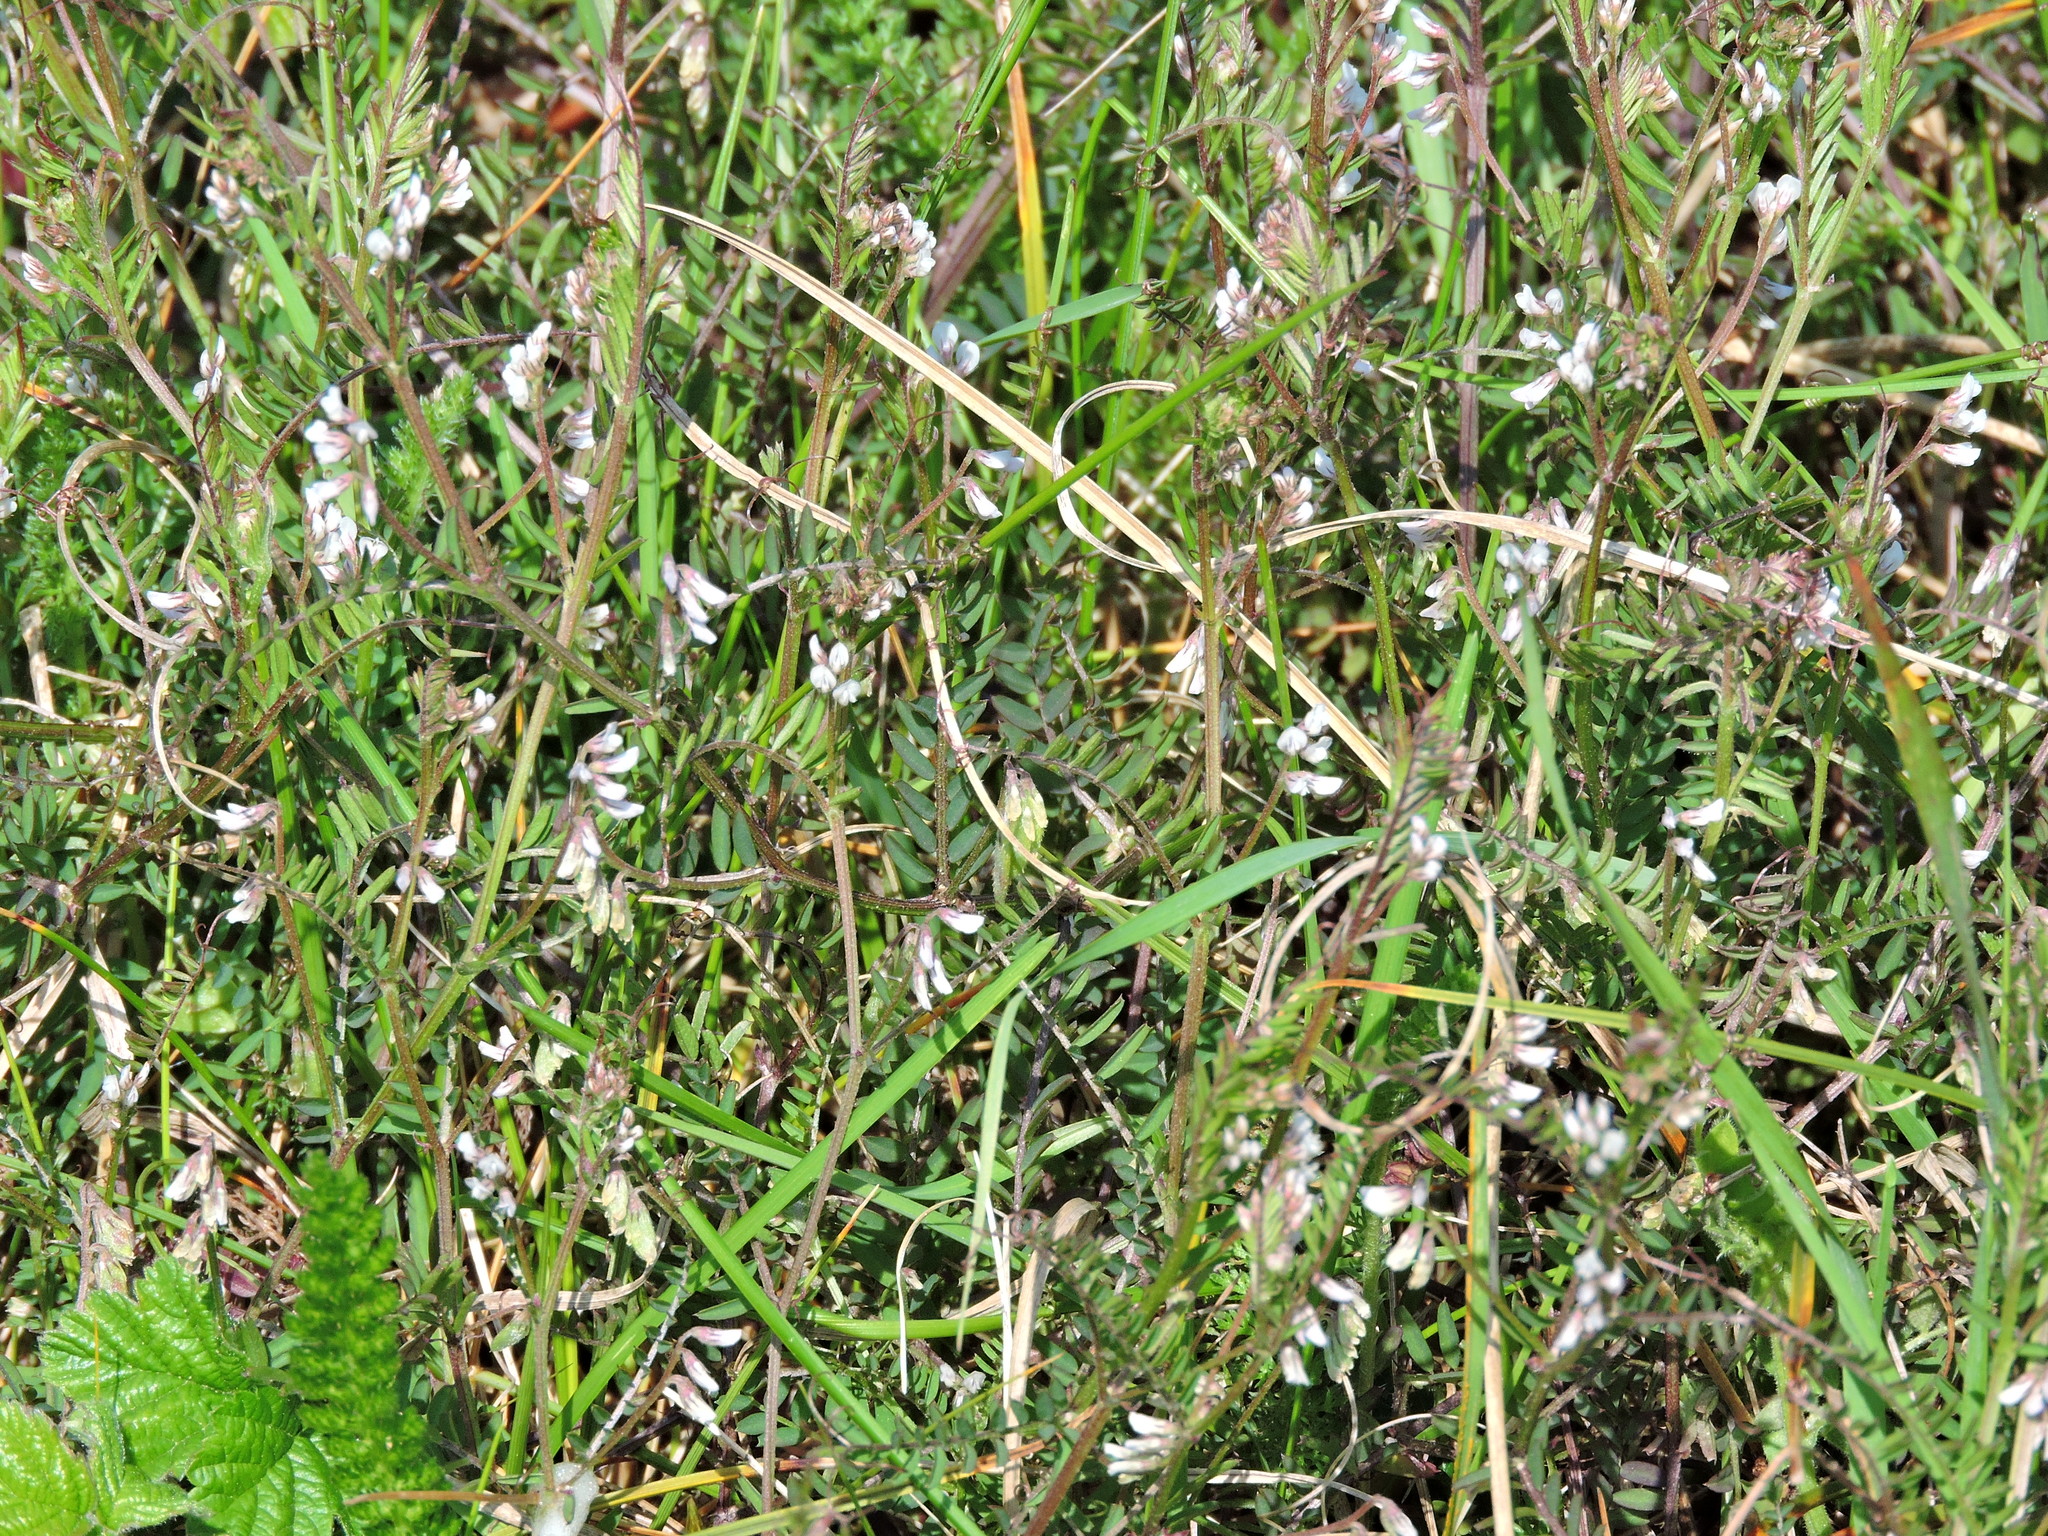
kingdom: Plantae
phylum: Tracheophyta
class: Magnoliopsida
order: Fabales
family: Fabaceae
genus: Vicia
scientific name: Vicia hirsuta
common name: Tiny vetch
